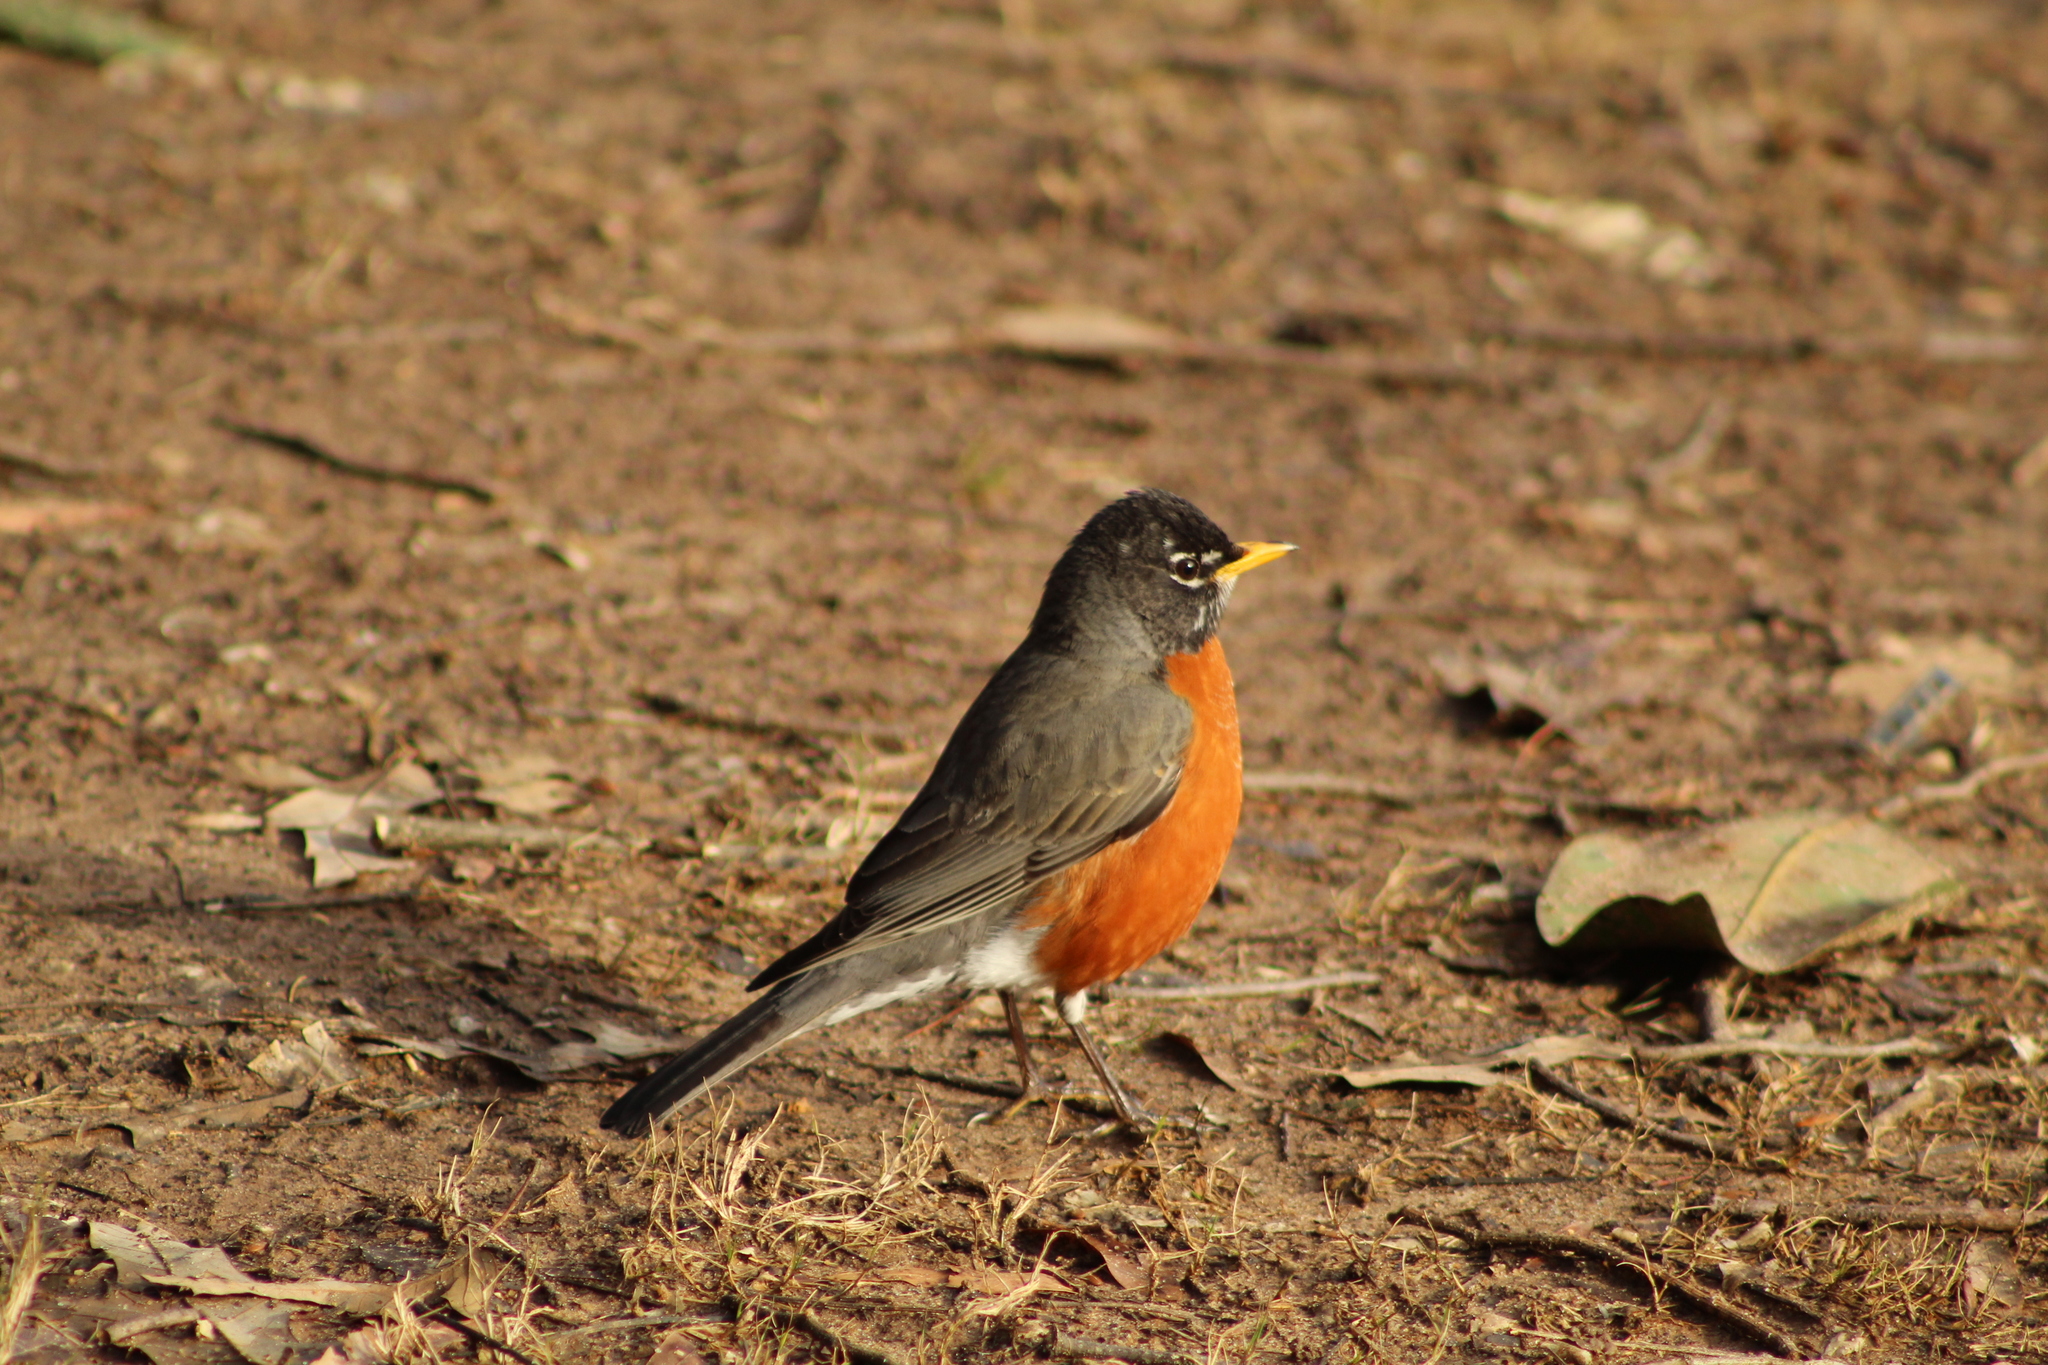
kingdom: Animalia
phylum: Chordata
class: Aves
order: Passeriformes
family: Turdidae
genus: Turdus
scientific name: Turdus migratorius
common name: American robin
